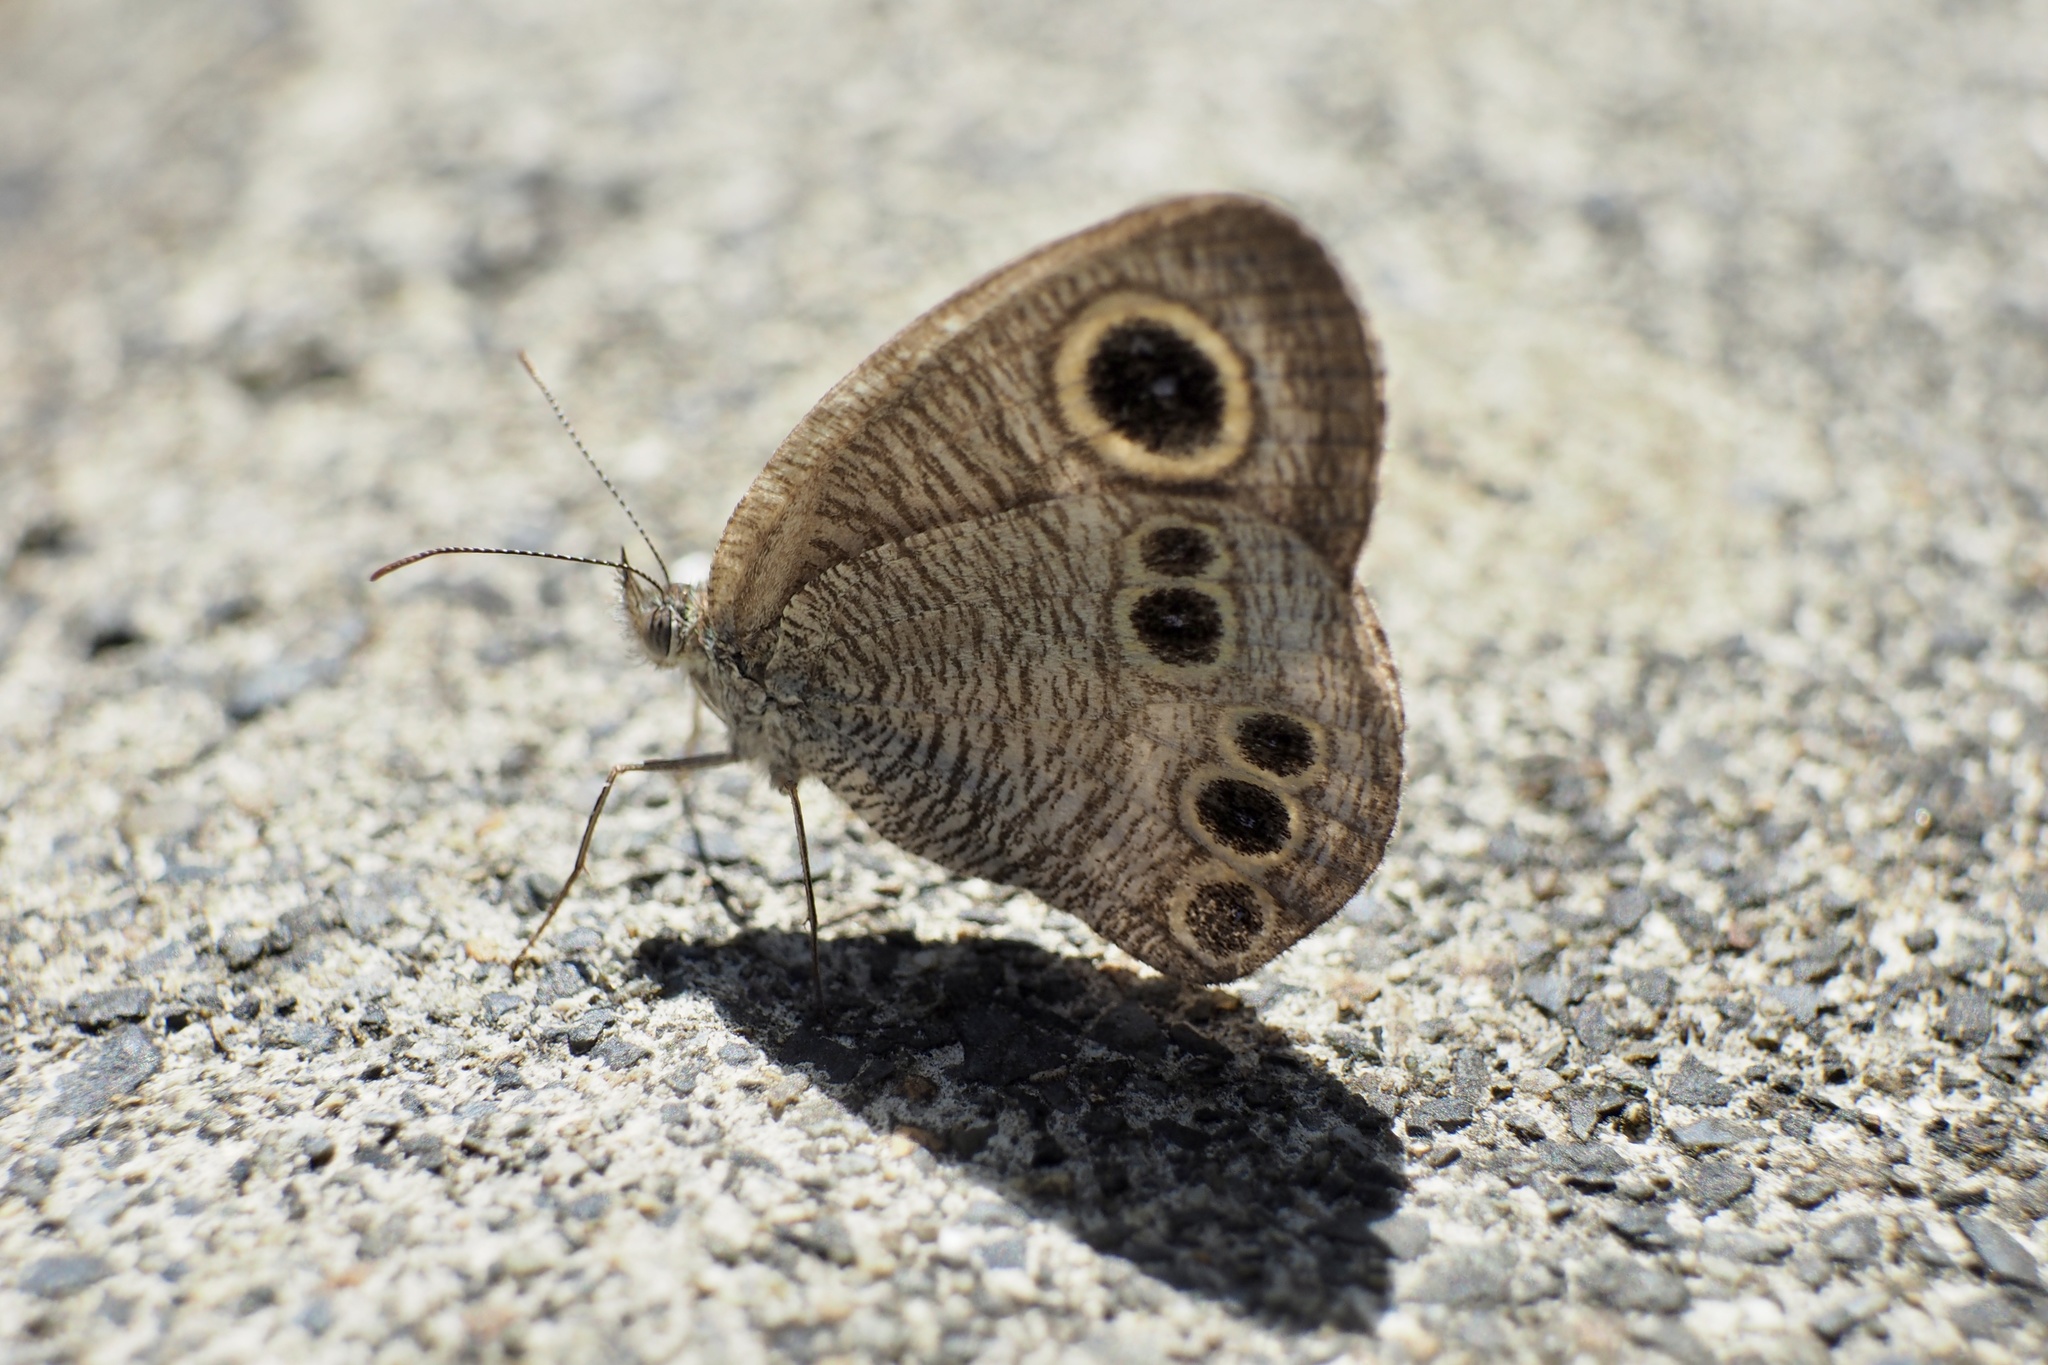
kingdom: Animalia
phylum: Arthropoda
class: Insecta
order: Lepidoptera
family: Nymphalidae
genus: Ypthima
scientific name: Ypthima argus
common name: Common fivering
